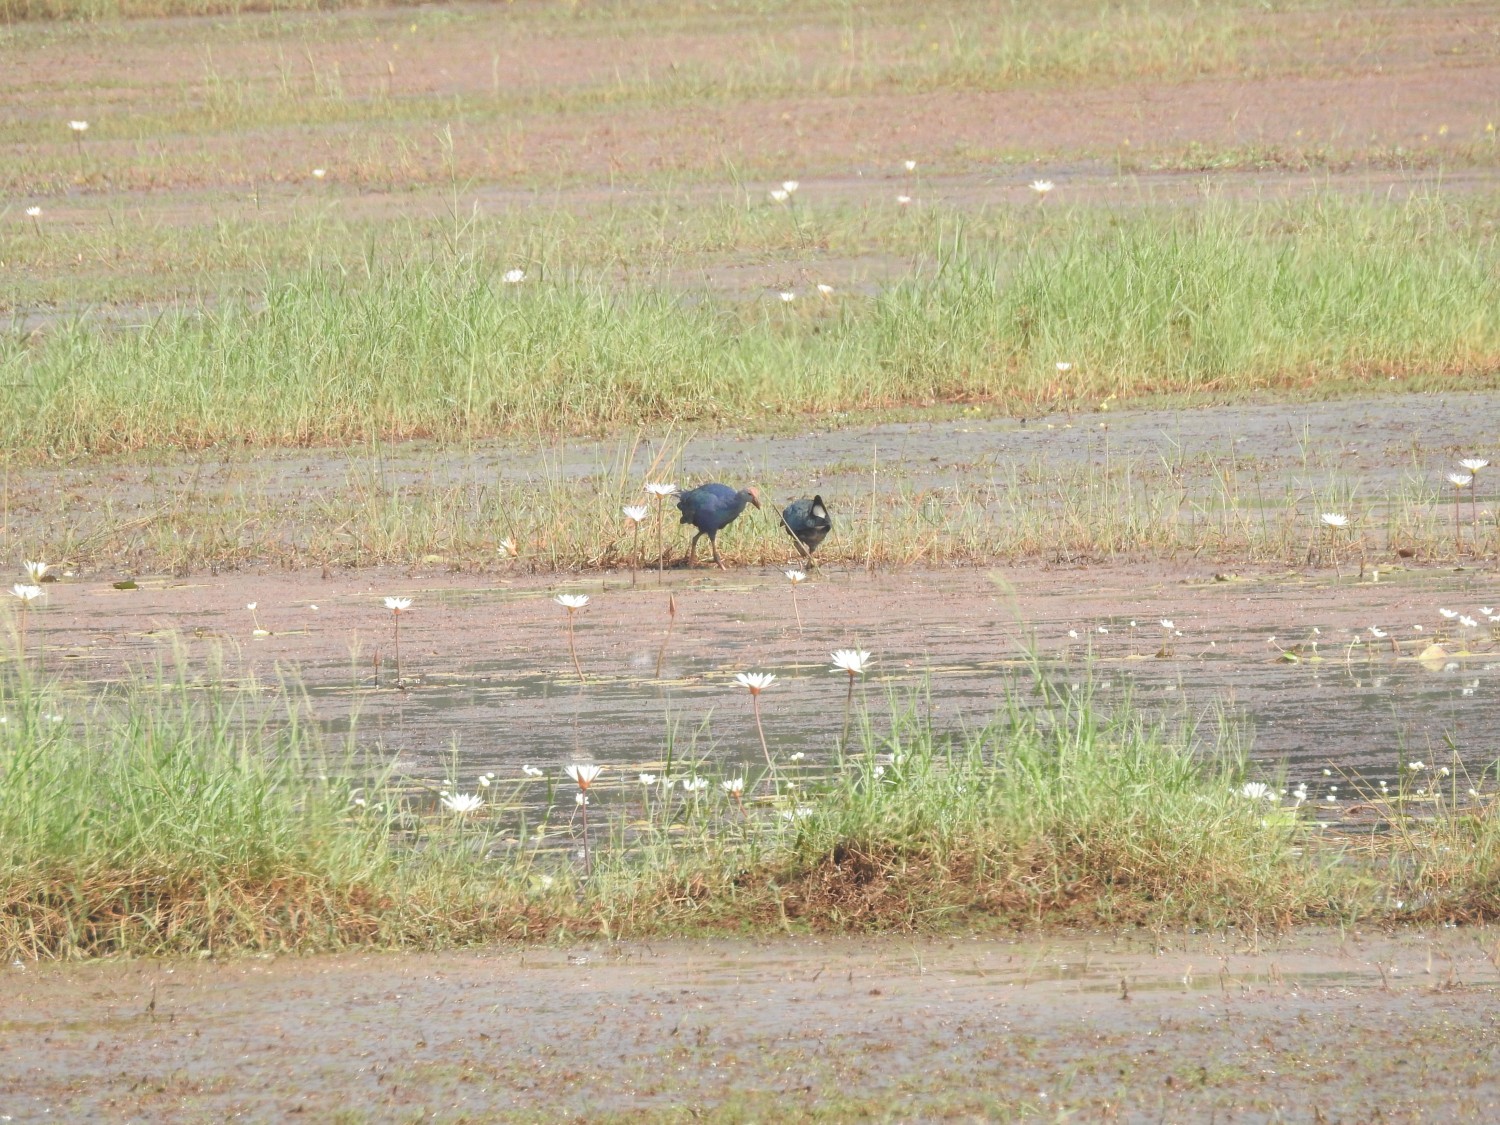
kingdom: Animalia
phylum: Chordata
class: Aves
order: Gruiformes
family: Rallidae
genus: Porphyrio
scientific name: Porphyrio porphyrio
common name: Purple swamphen
